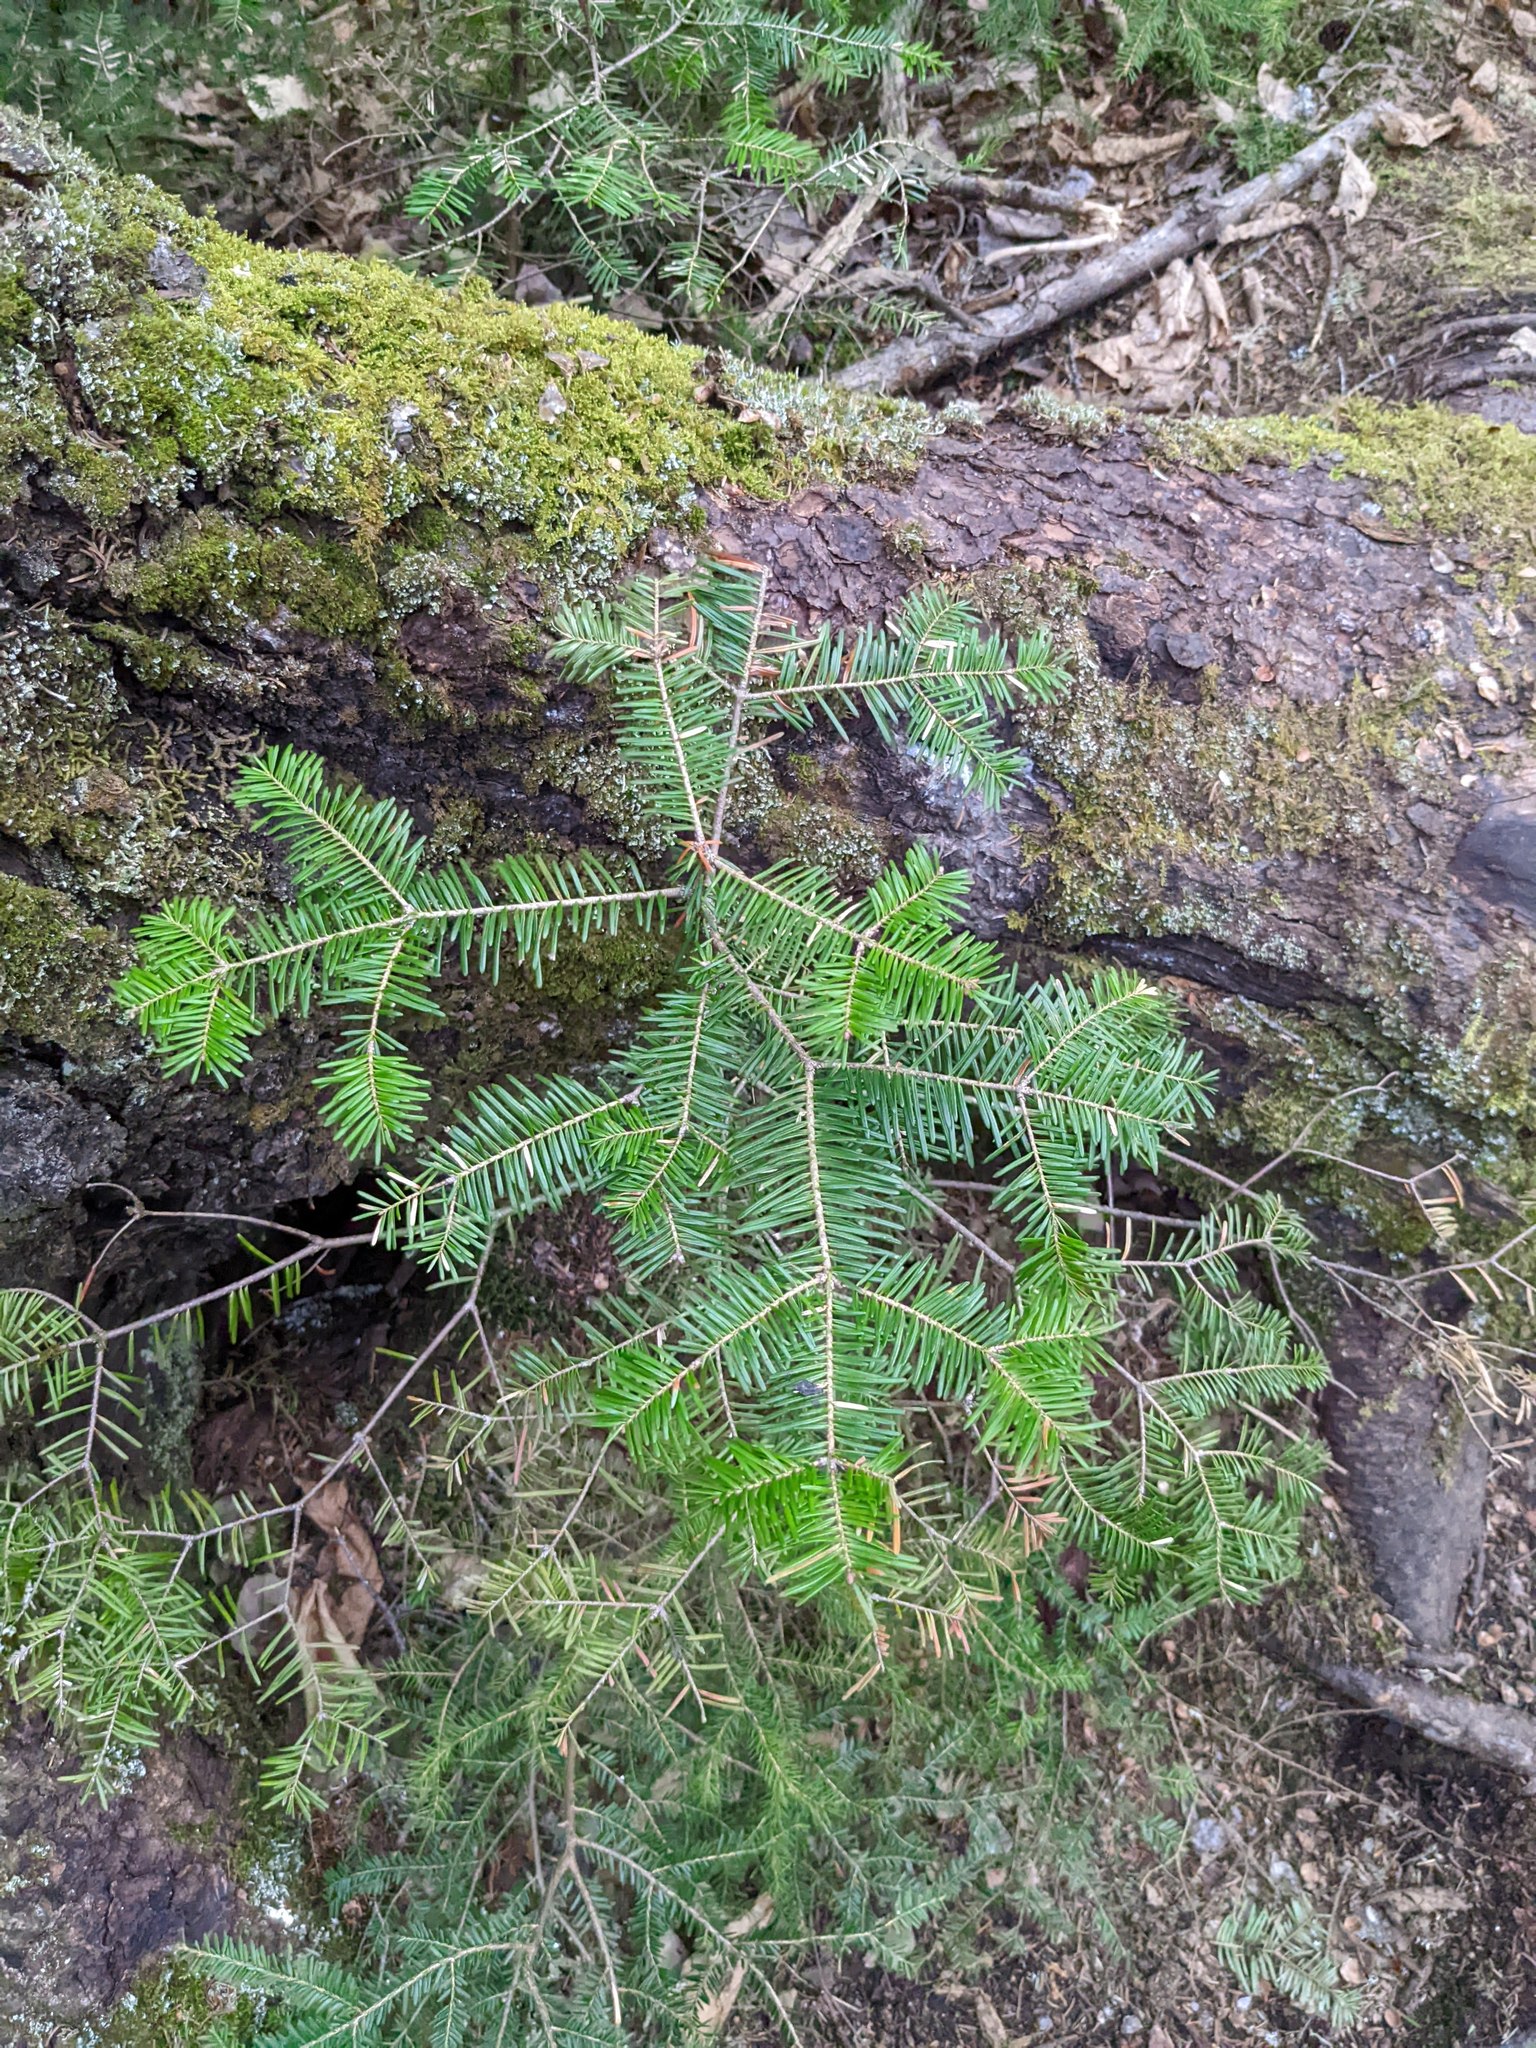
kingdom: Plantae
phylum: Tracheophyta
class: Pinopsida
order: Pinales
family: Pinaceae
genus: Abies
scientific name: Abies balsamea
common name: Balsam fir
